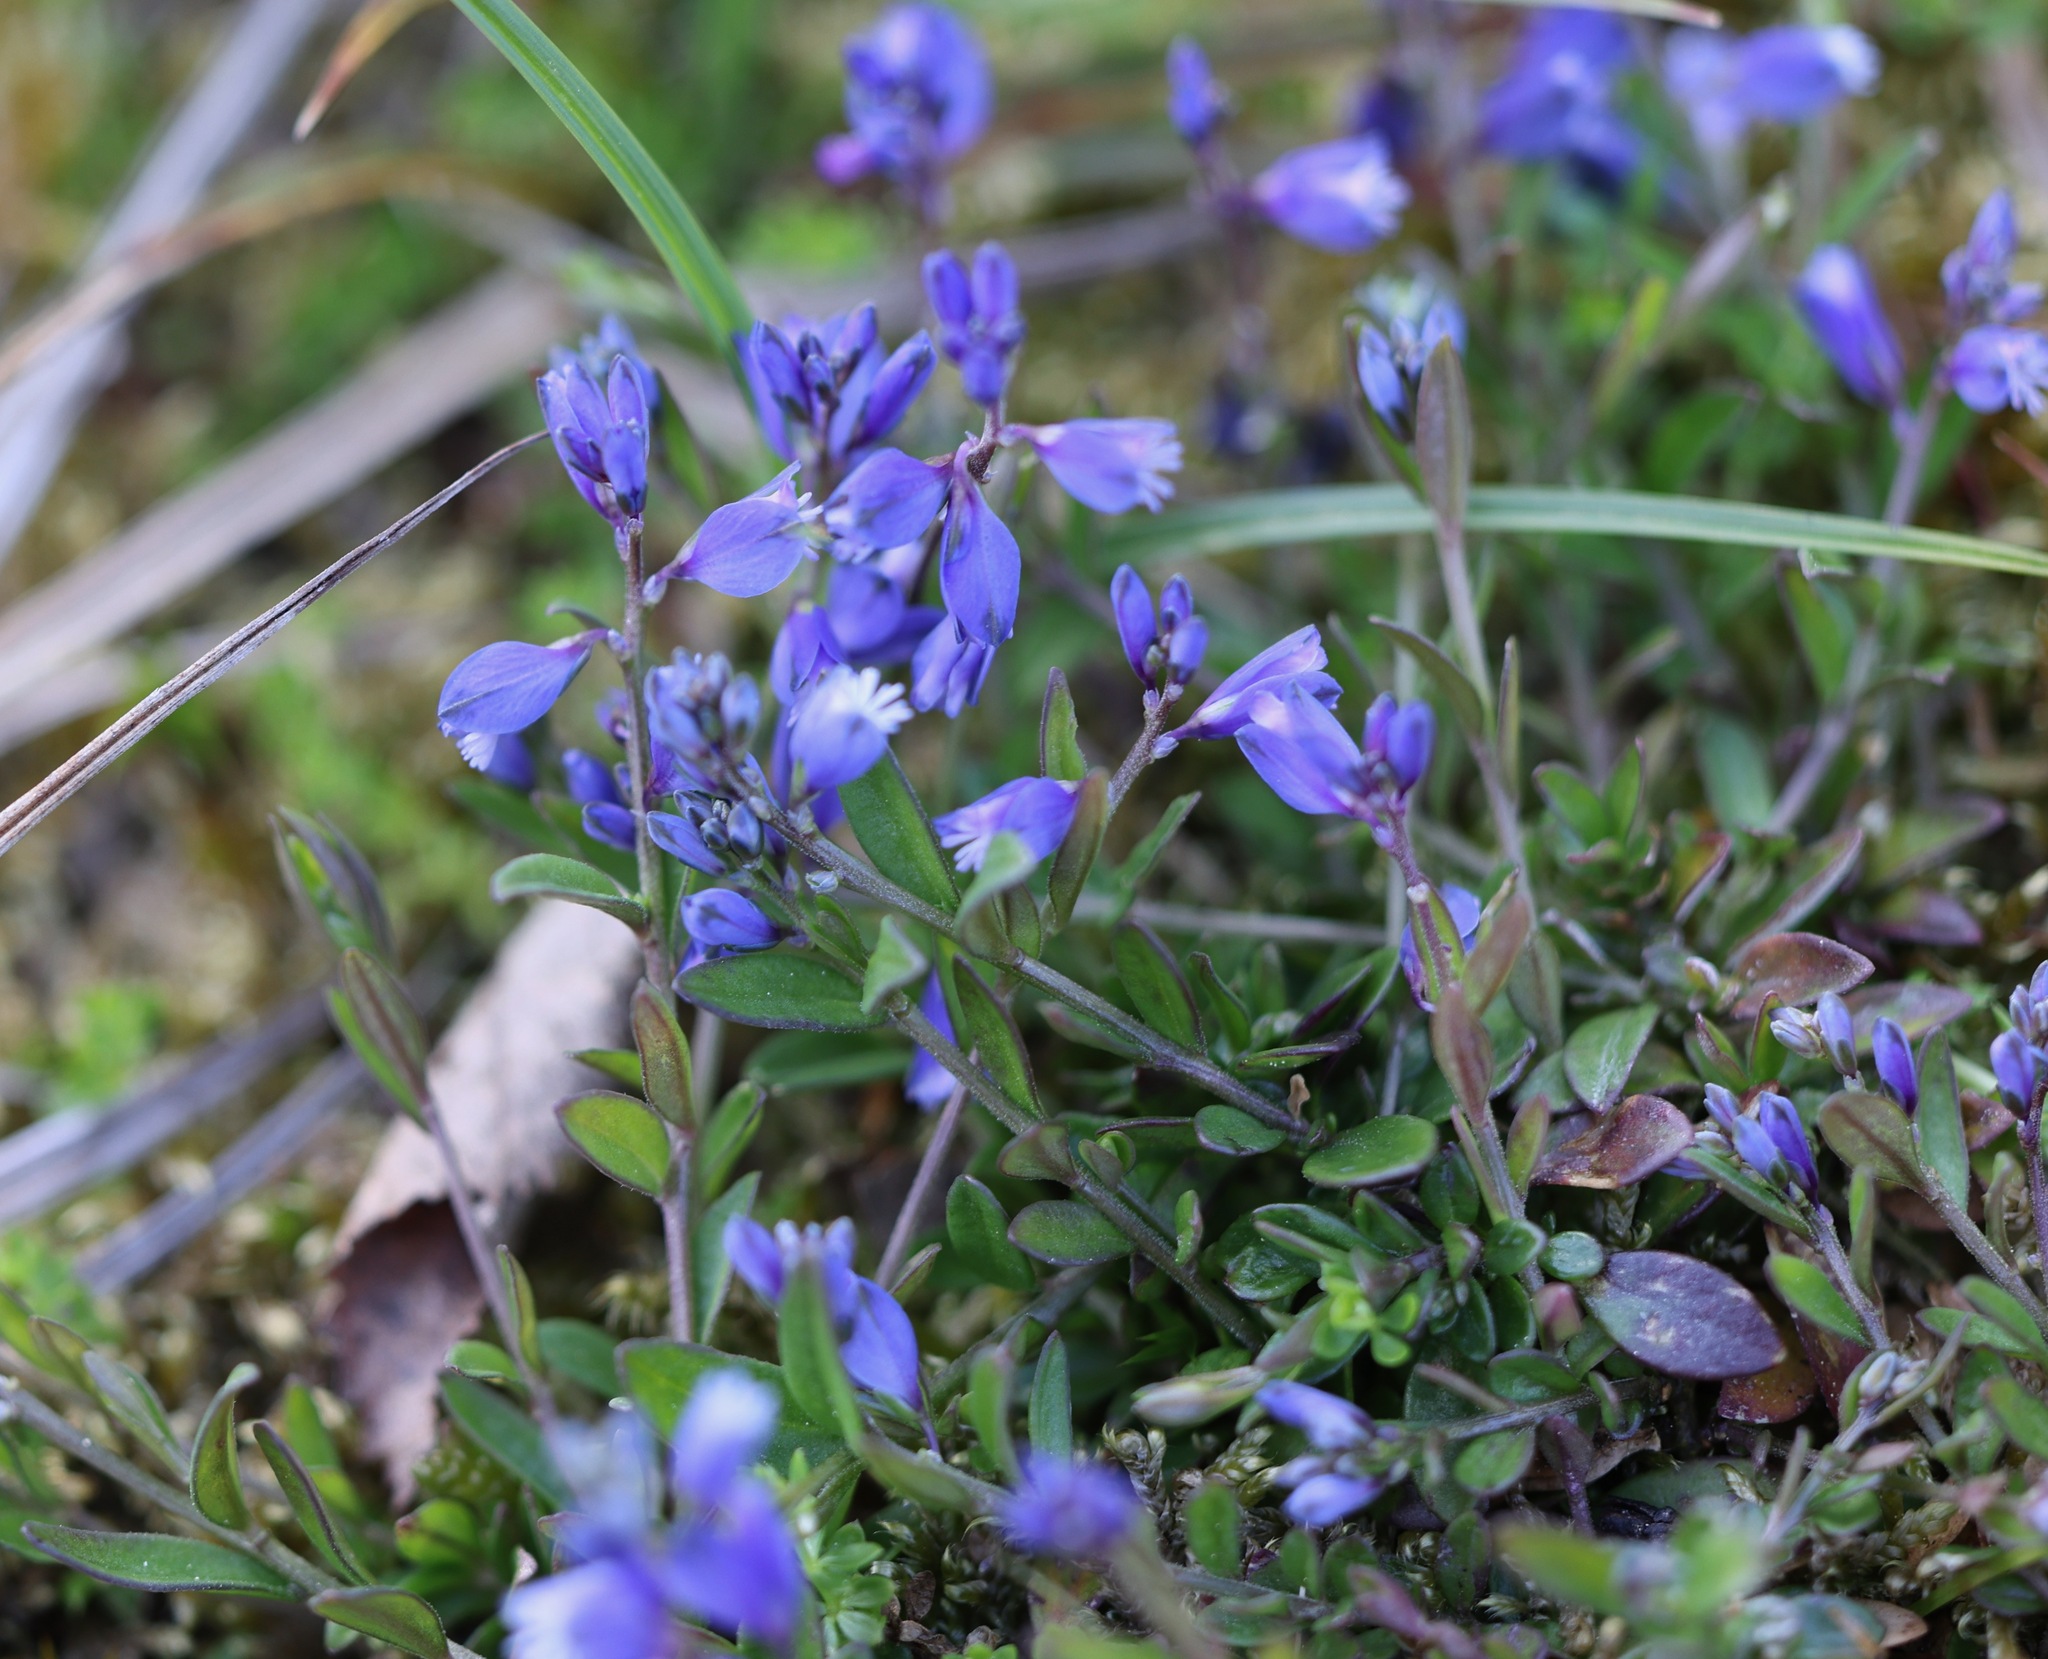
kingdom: Plantae
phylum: Tracheophyta
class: Magnoliopsida
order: Fabales
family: Polygalaceae
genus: Polygala
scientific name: Polygala vulgaris
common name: Common milkwort
